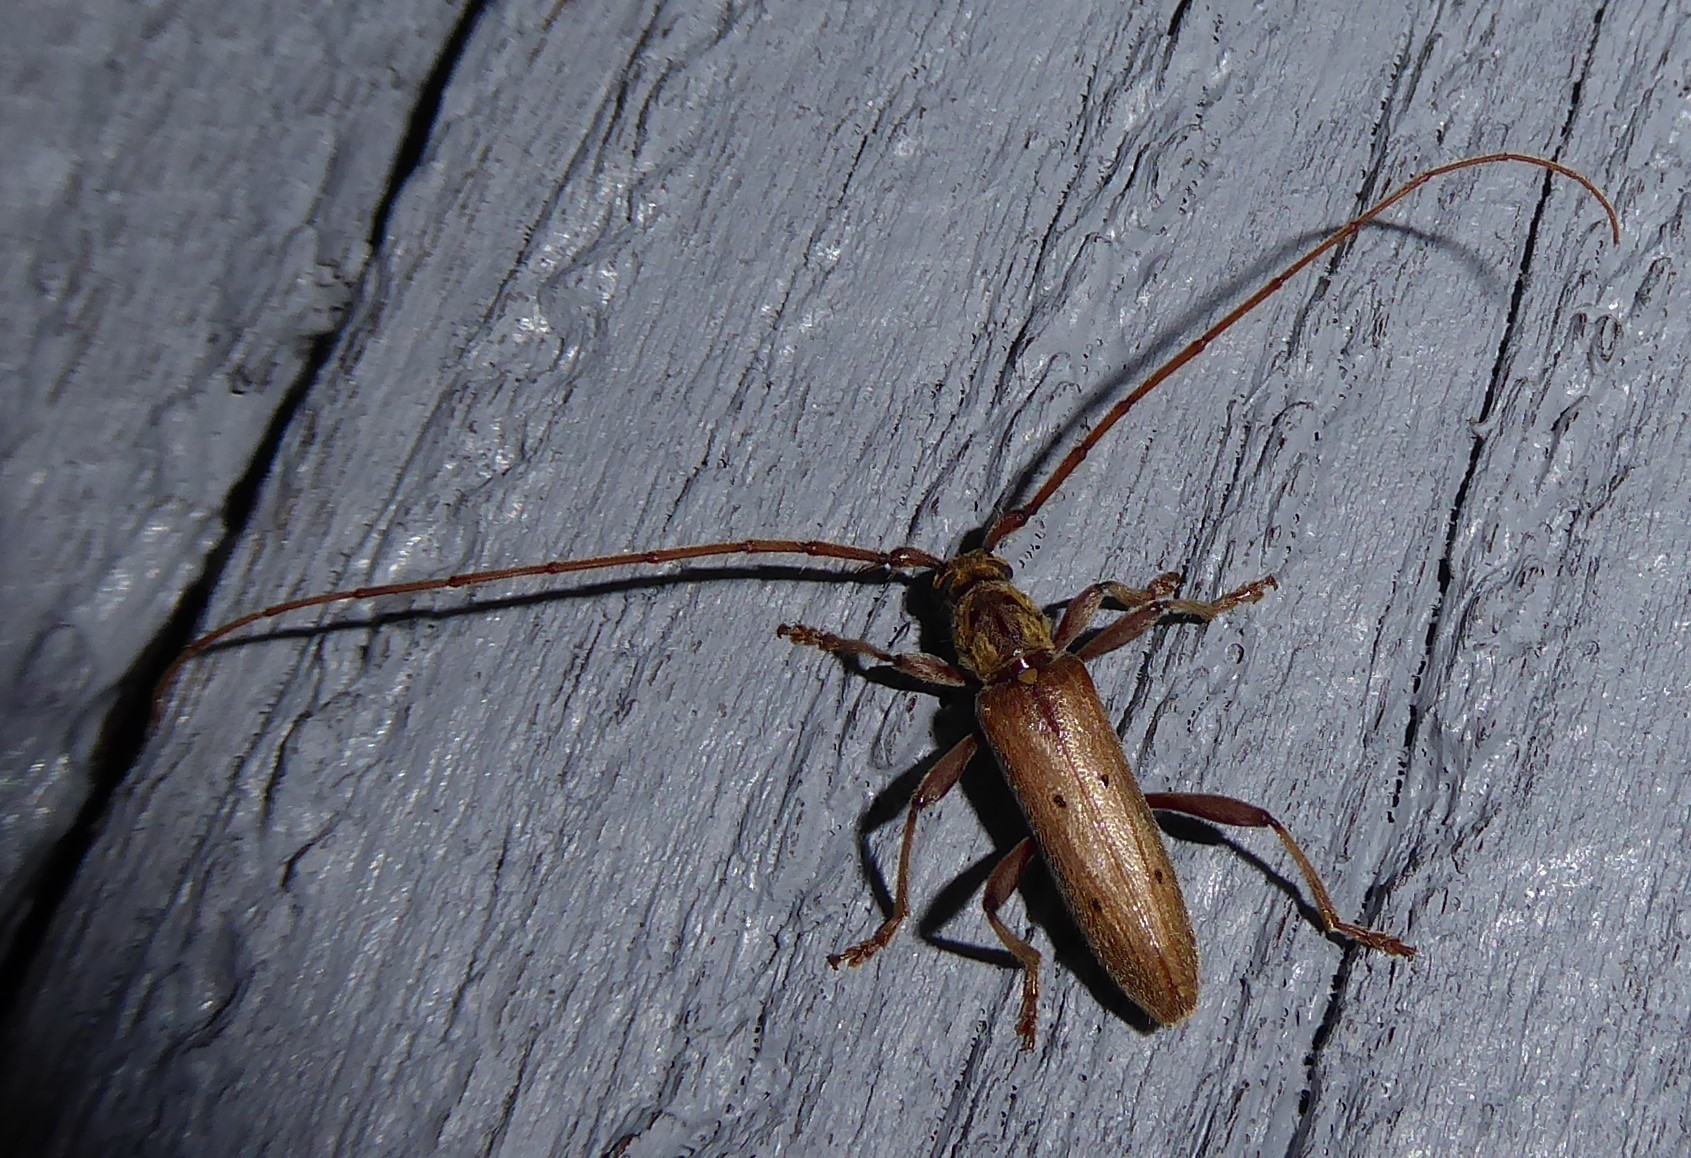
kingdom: Animalia
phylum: Arthropoda
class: Insecta
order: Coleoptera
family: Cerambycidae
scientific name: Cerambycidae
